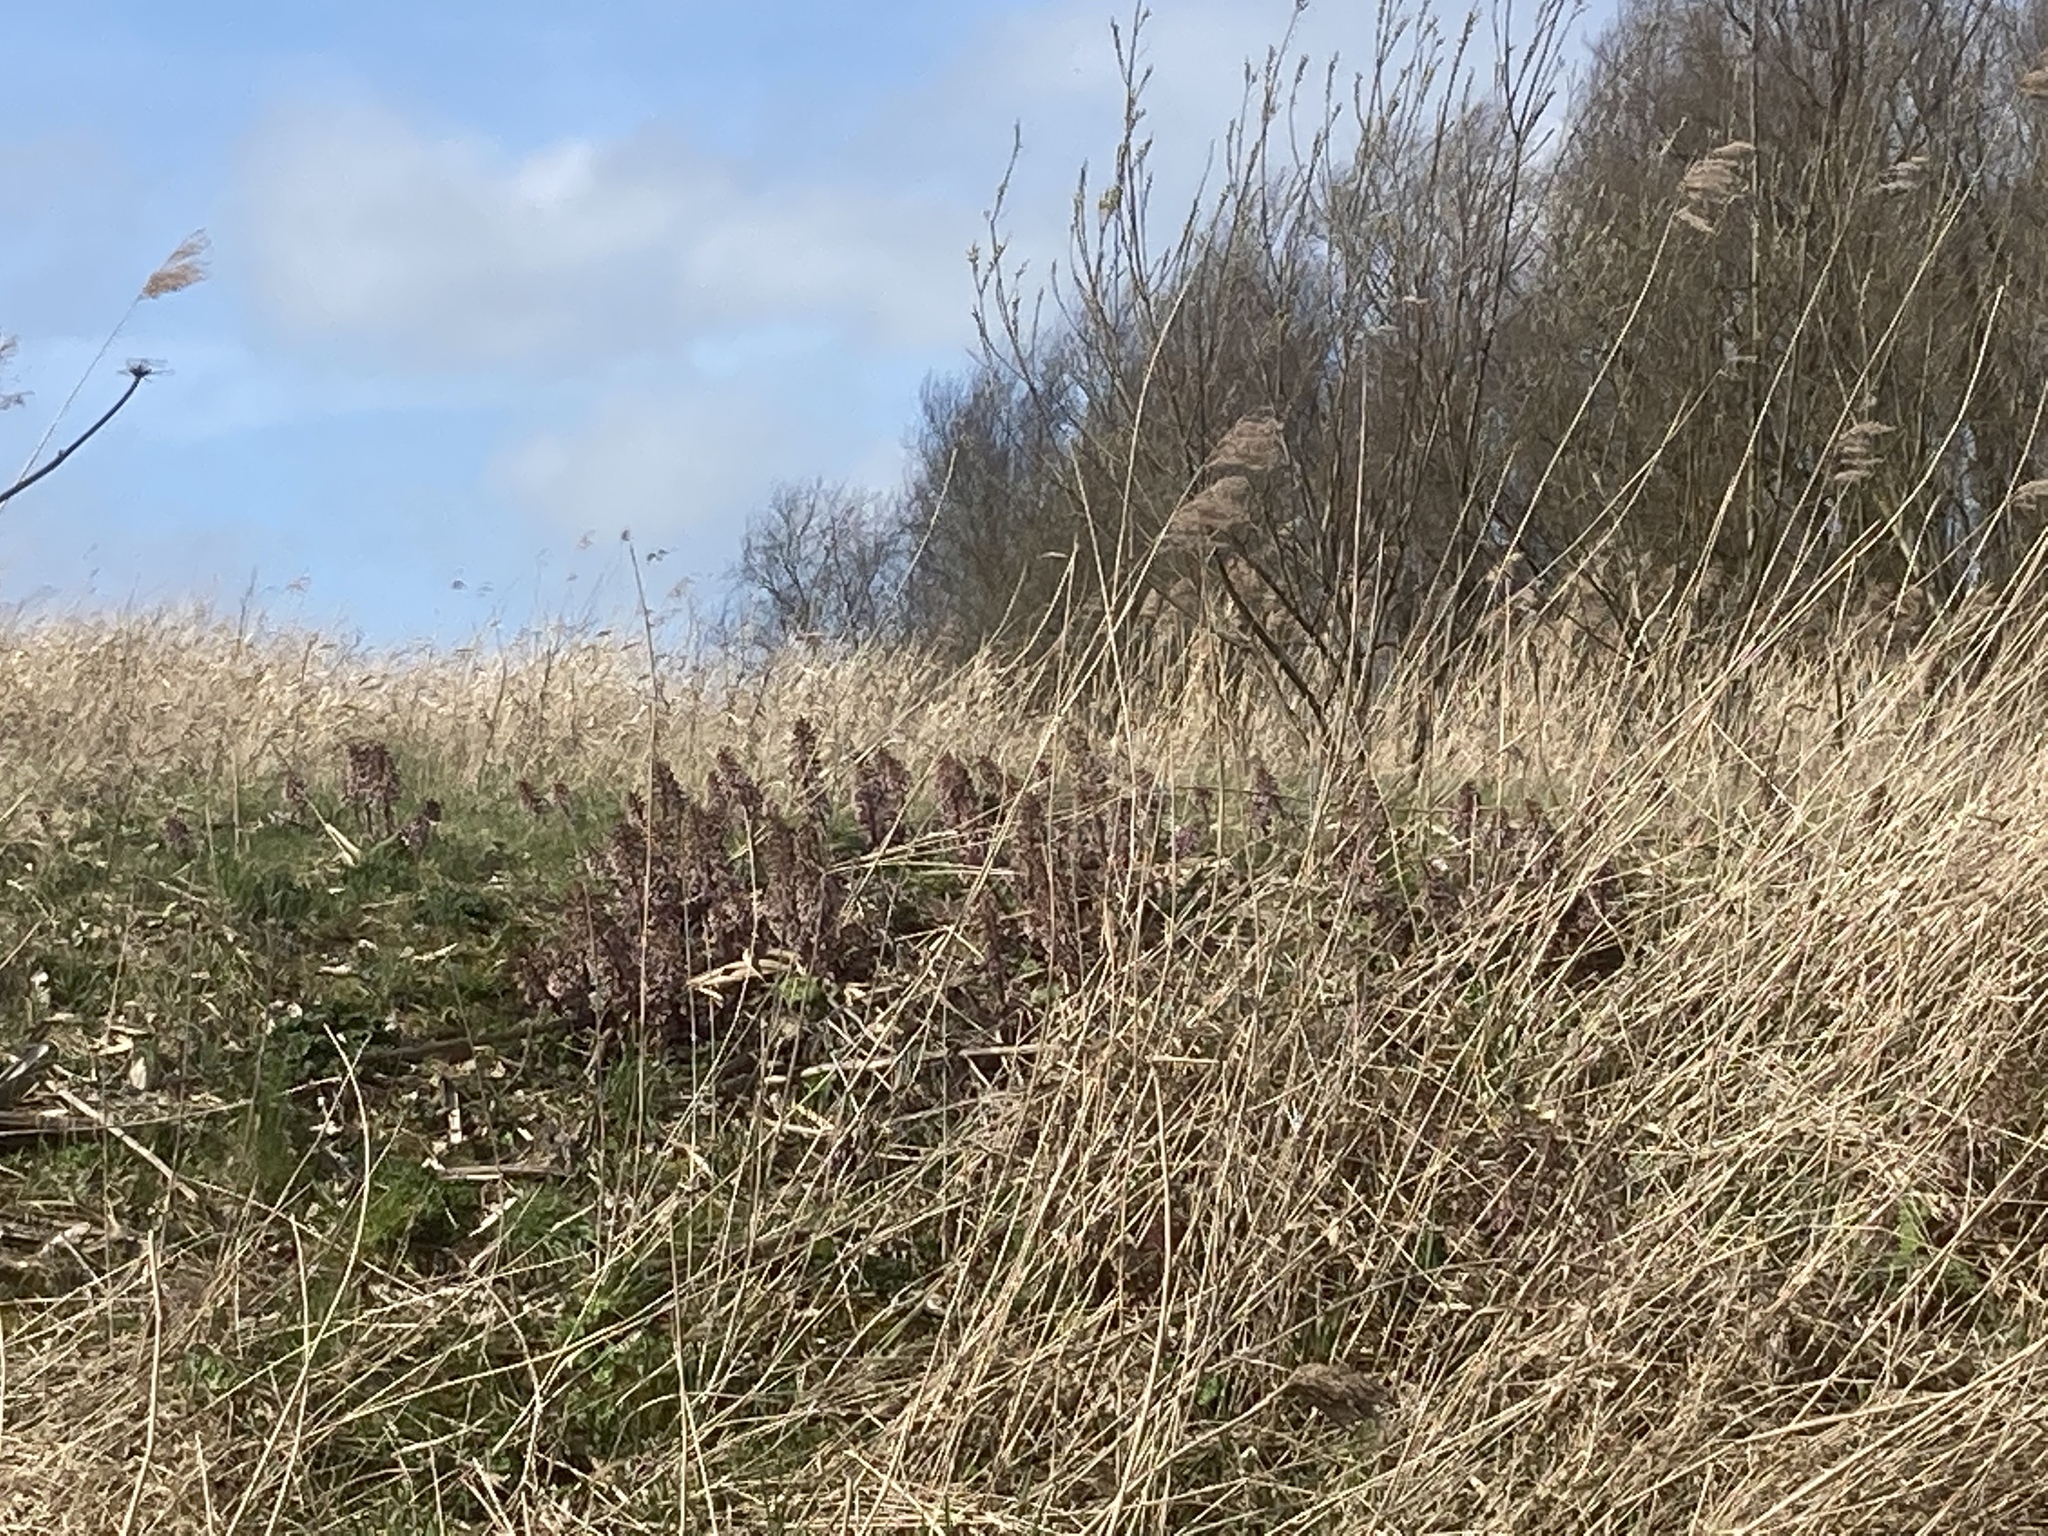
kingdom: Plantae
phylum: Tracheophyta
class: Liliopsida
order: Poales
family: Poaceae
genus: Phragmites
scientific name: Phragmites australis
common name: Common reed
